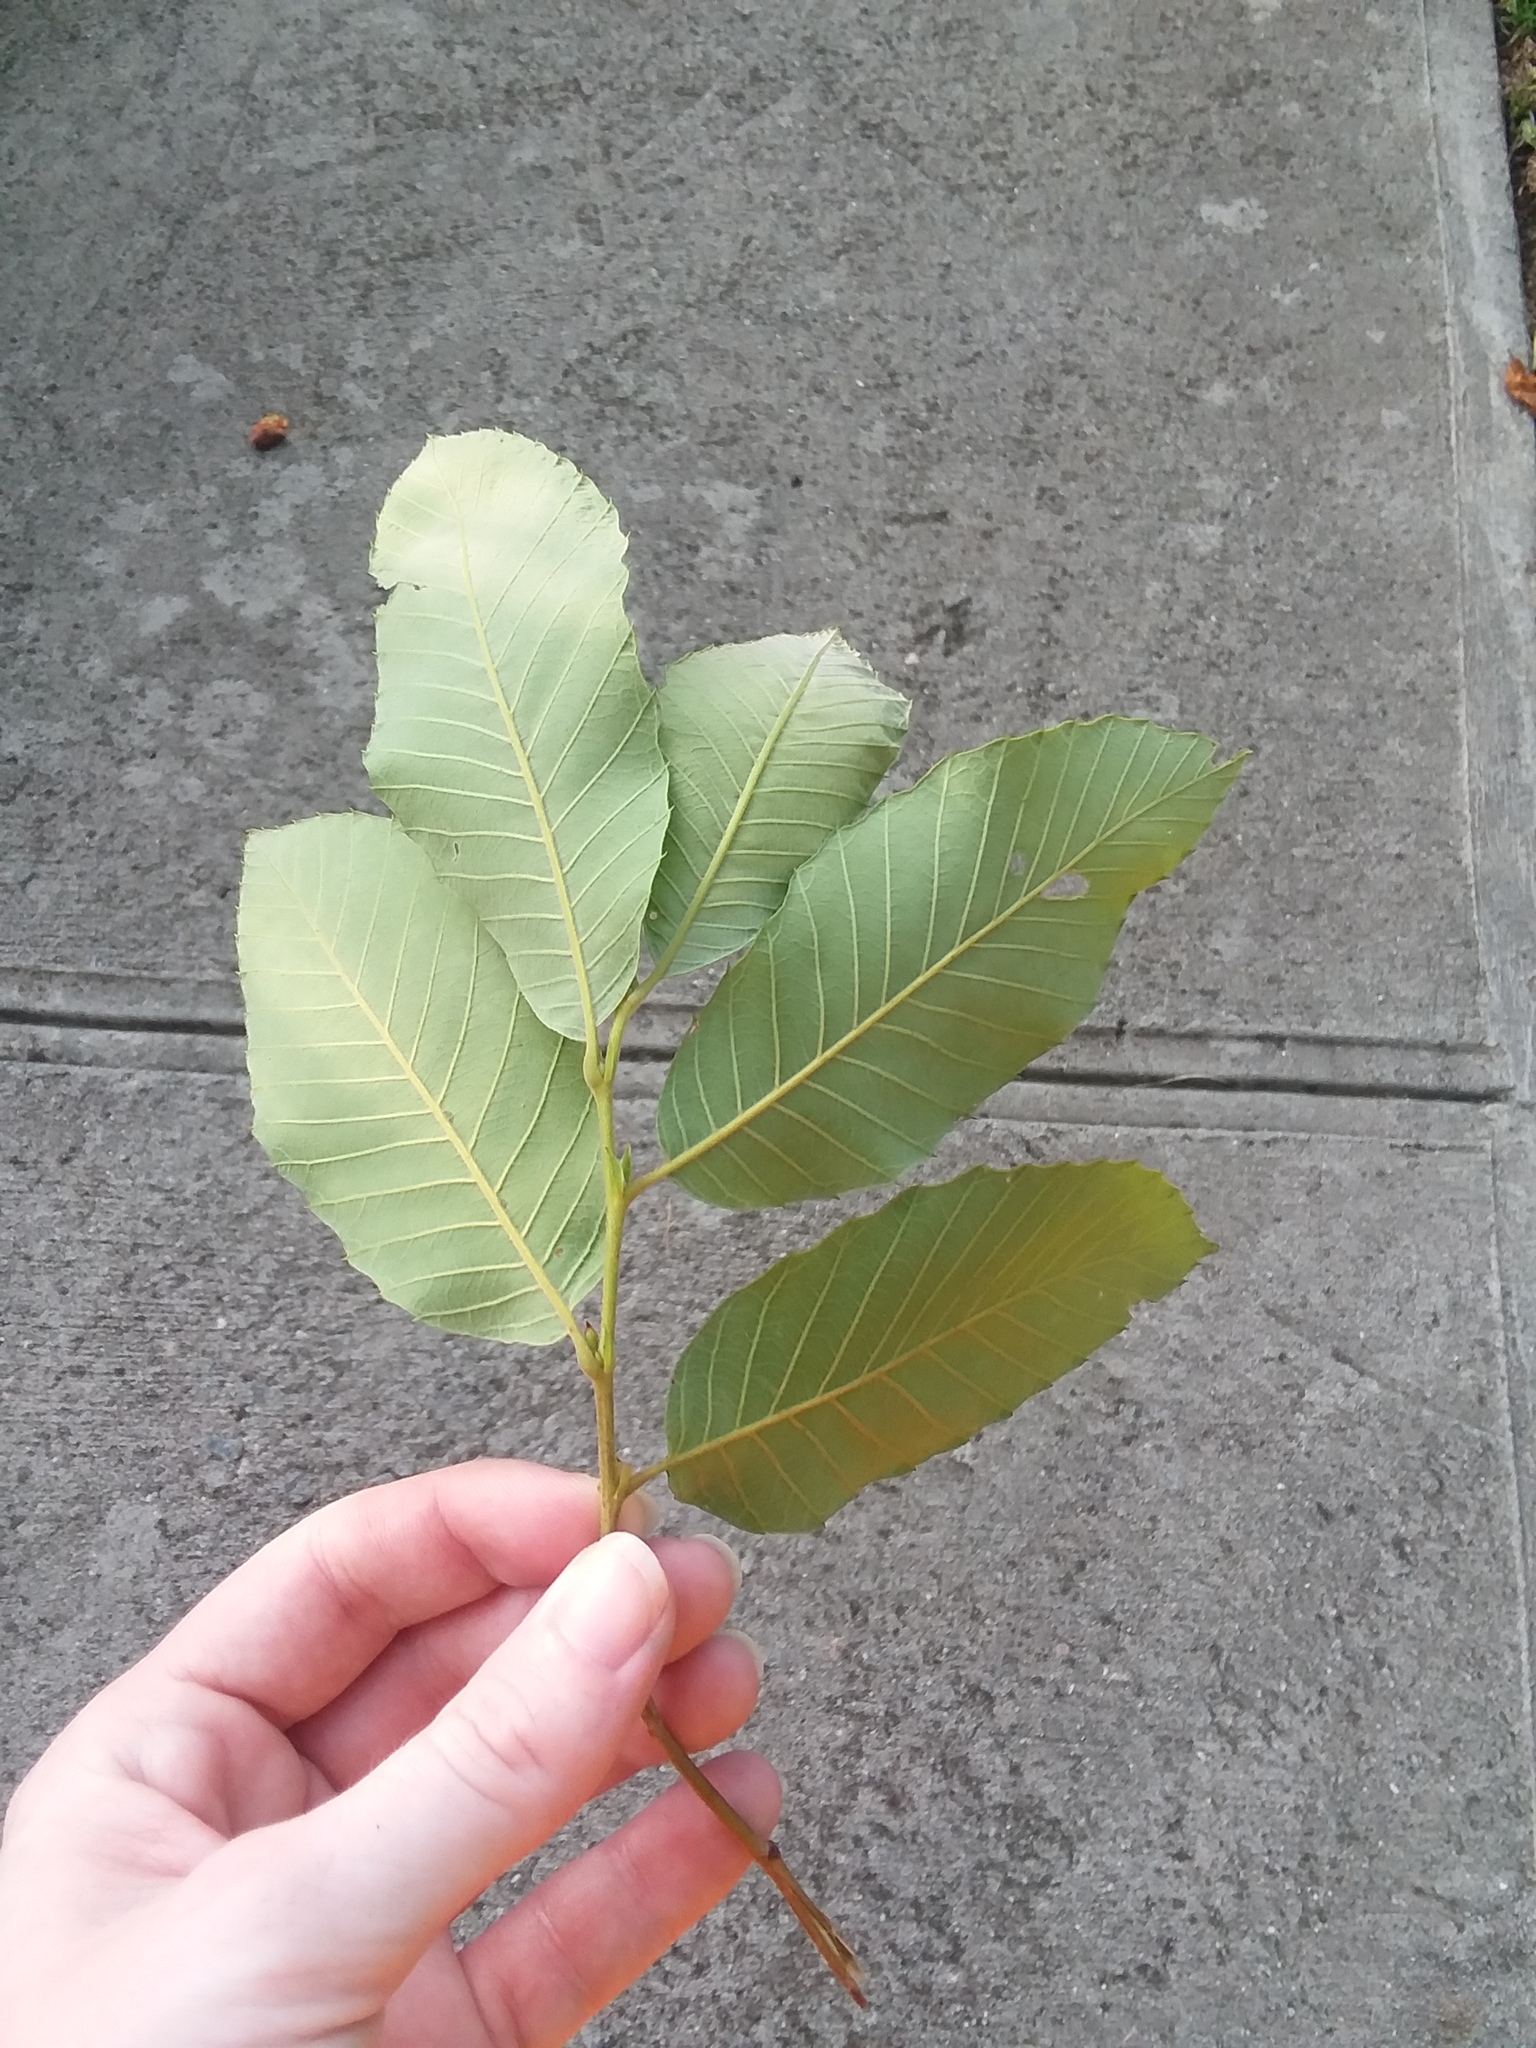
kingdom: Plantae
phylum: Tracheophyta
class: Magnoliopsida
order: Fagales
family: Fagaceae
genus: Castanea
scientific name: Castanea pumila
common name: Chinkapin
